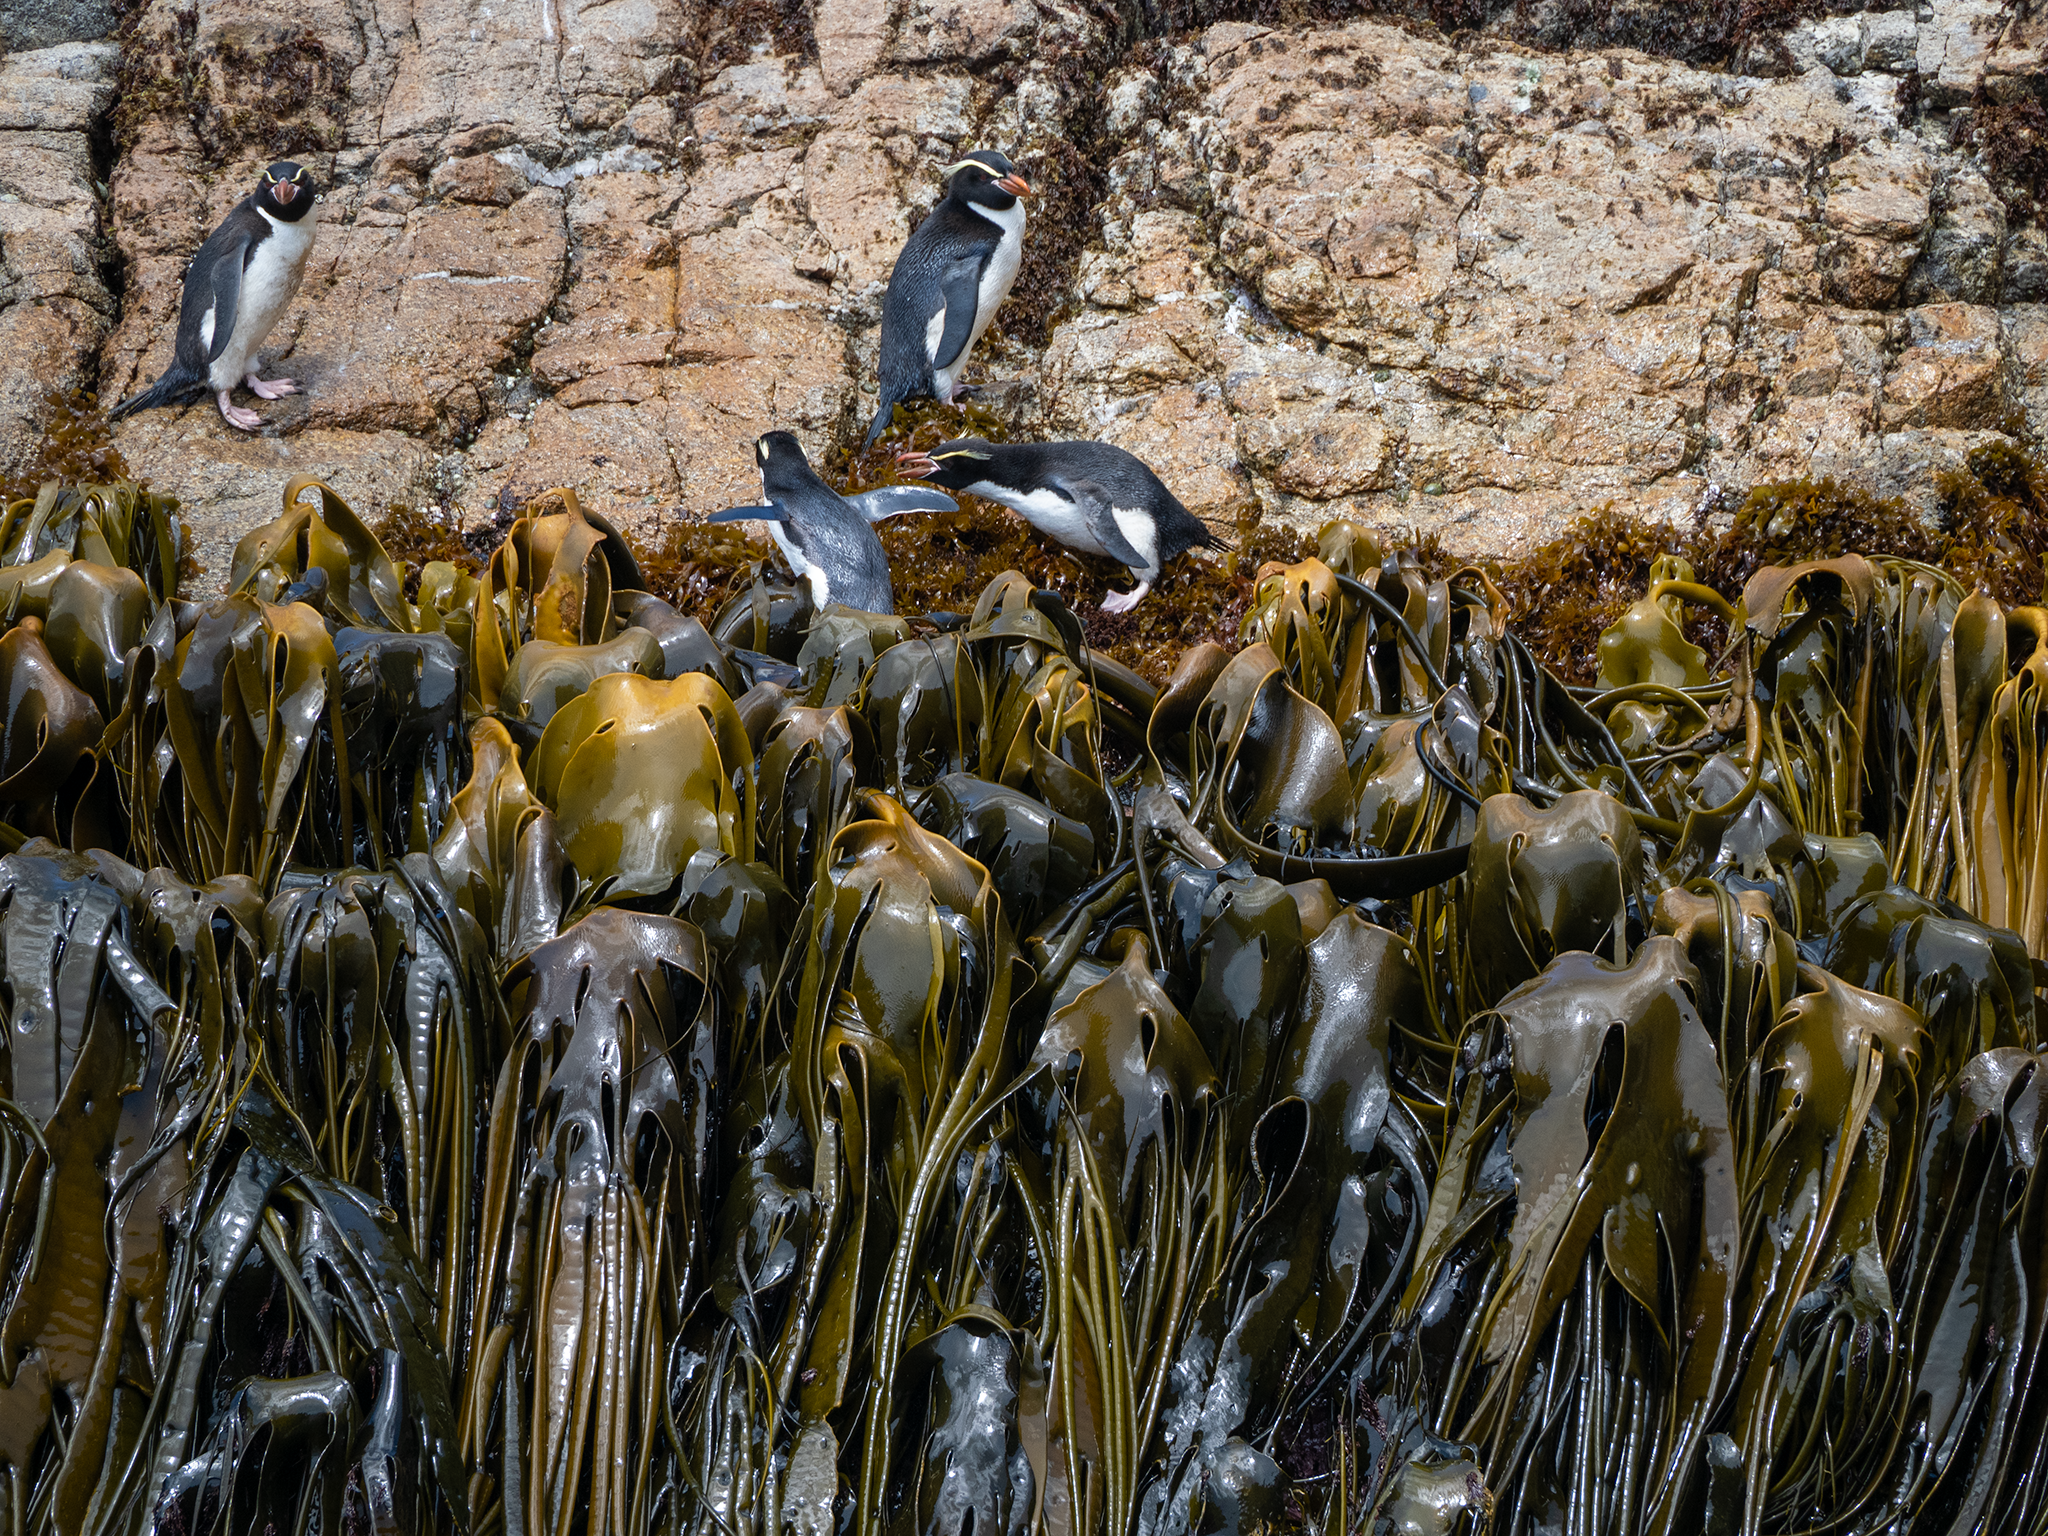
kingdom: Chromista
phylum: Ochrophyta
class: Phaeophyceae
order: Fucales
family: Durvillaeaceae
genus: Durvillaea
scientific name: Durvillaea antarctica
